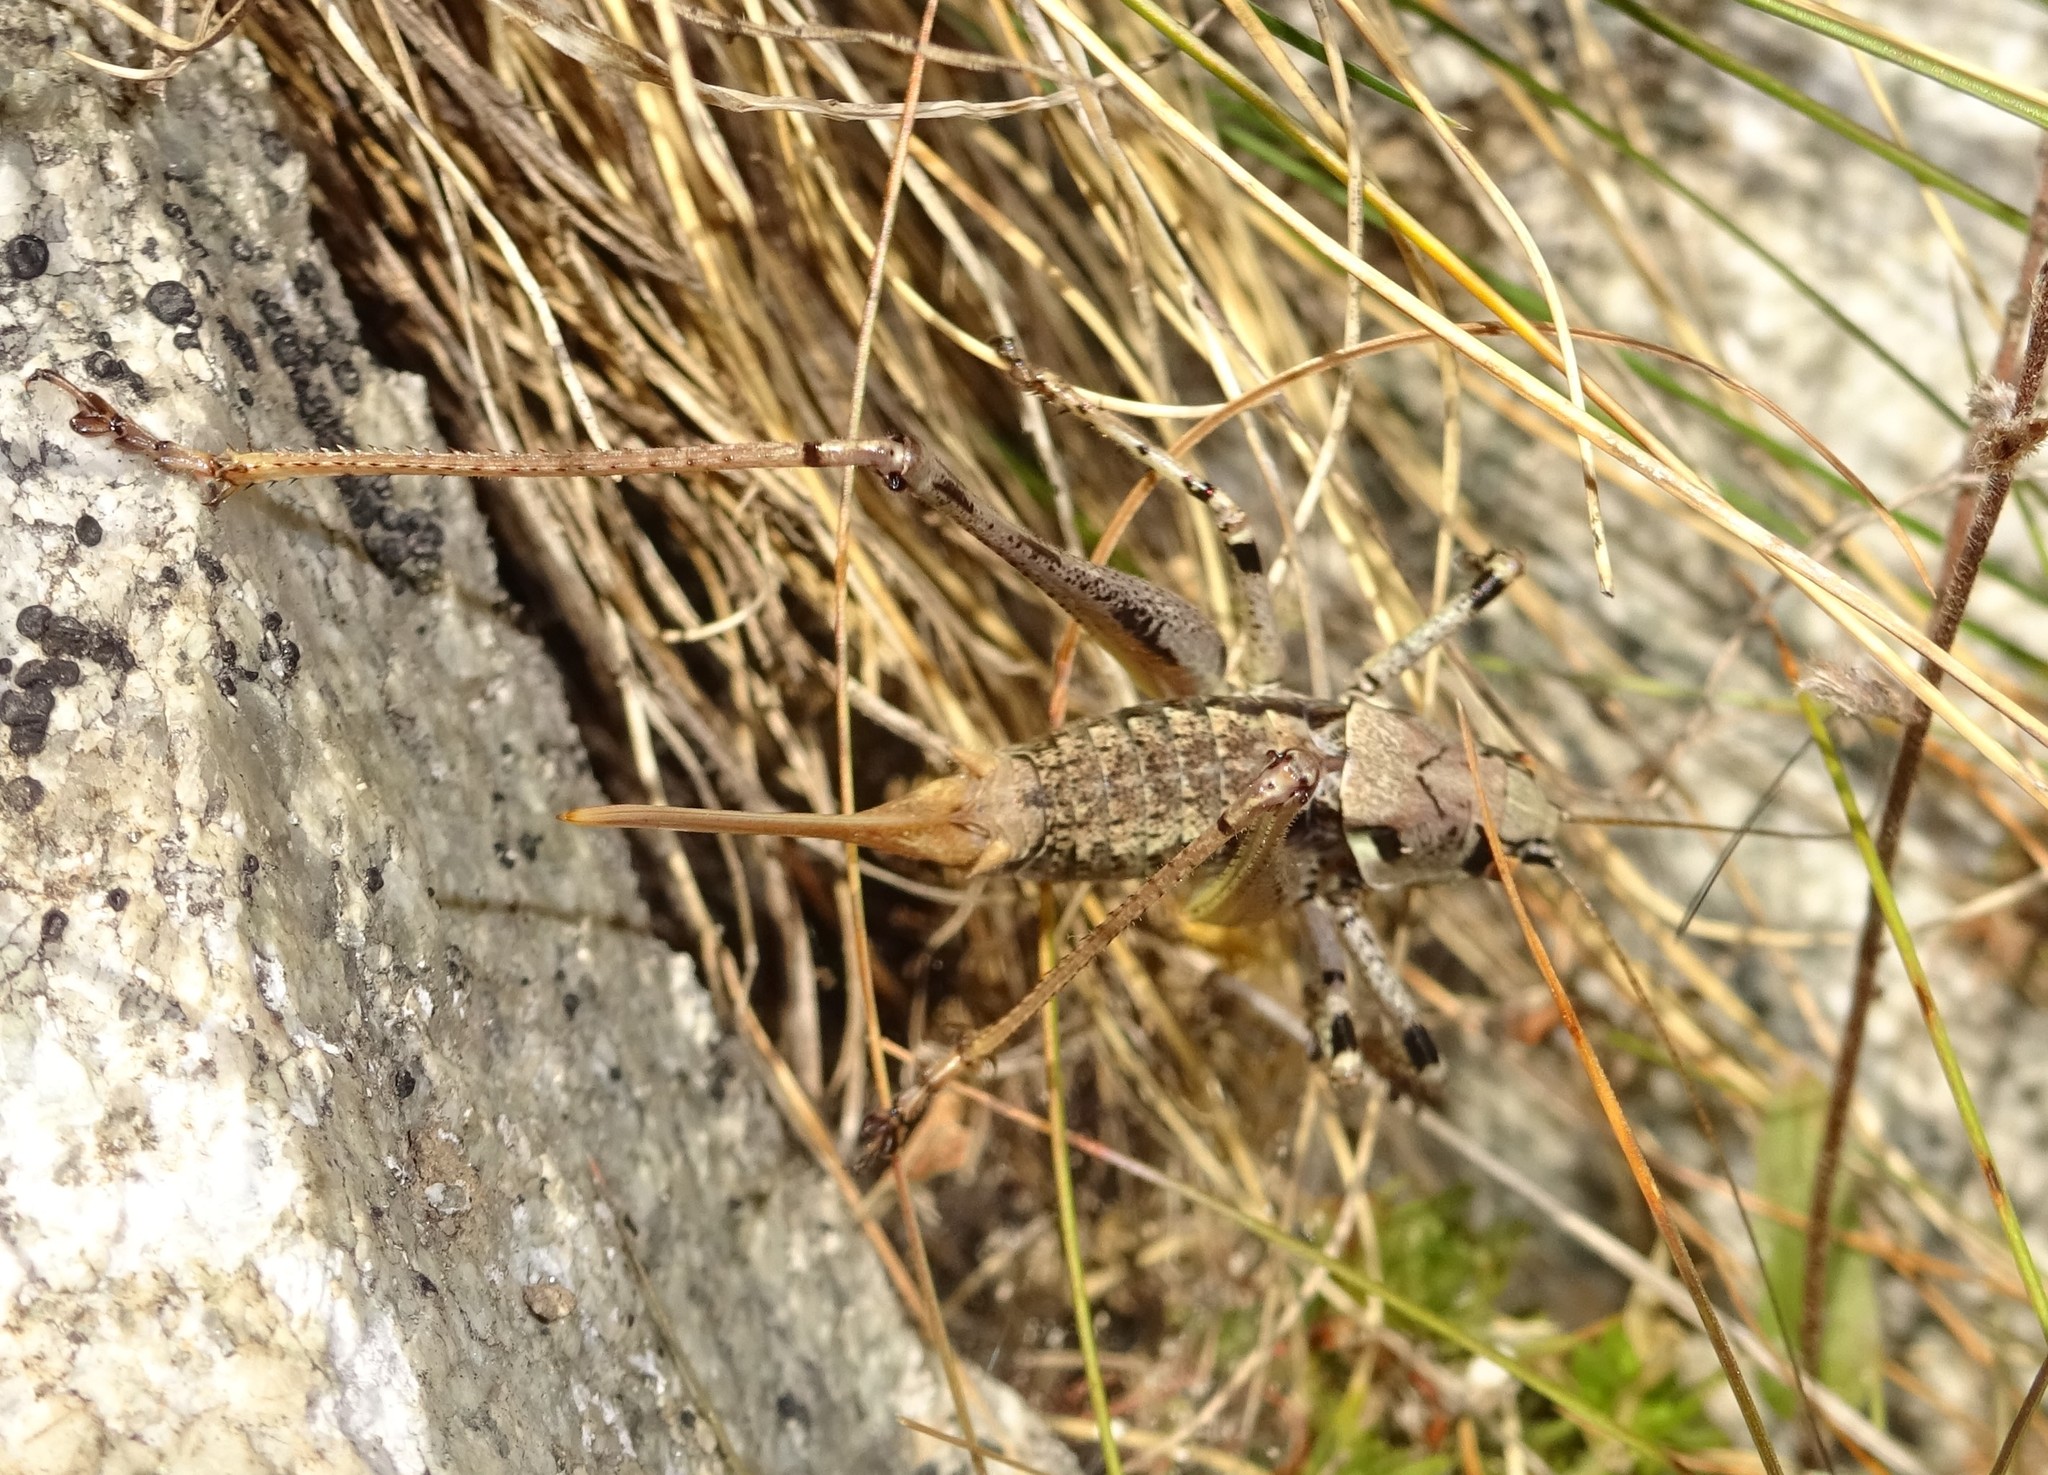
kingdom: Animalia
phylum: Arthropoda
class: Insecta
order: Orthoptera
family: Tettigoniidae
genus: Antaxius
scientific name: Antaxius pedestris
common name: Common mountain bush-cricket
